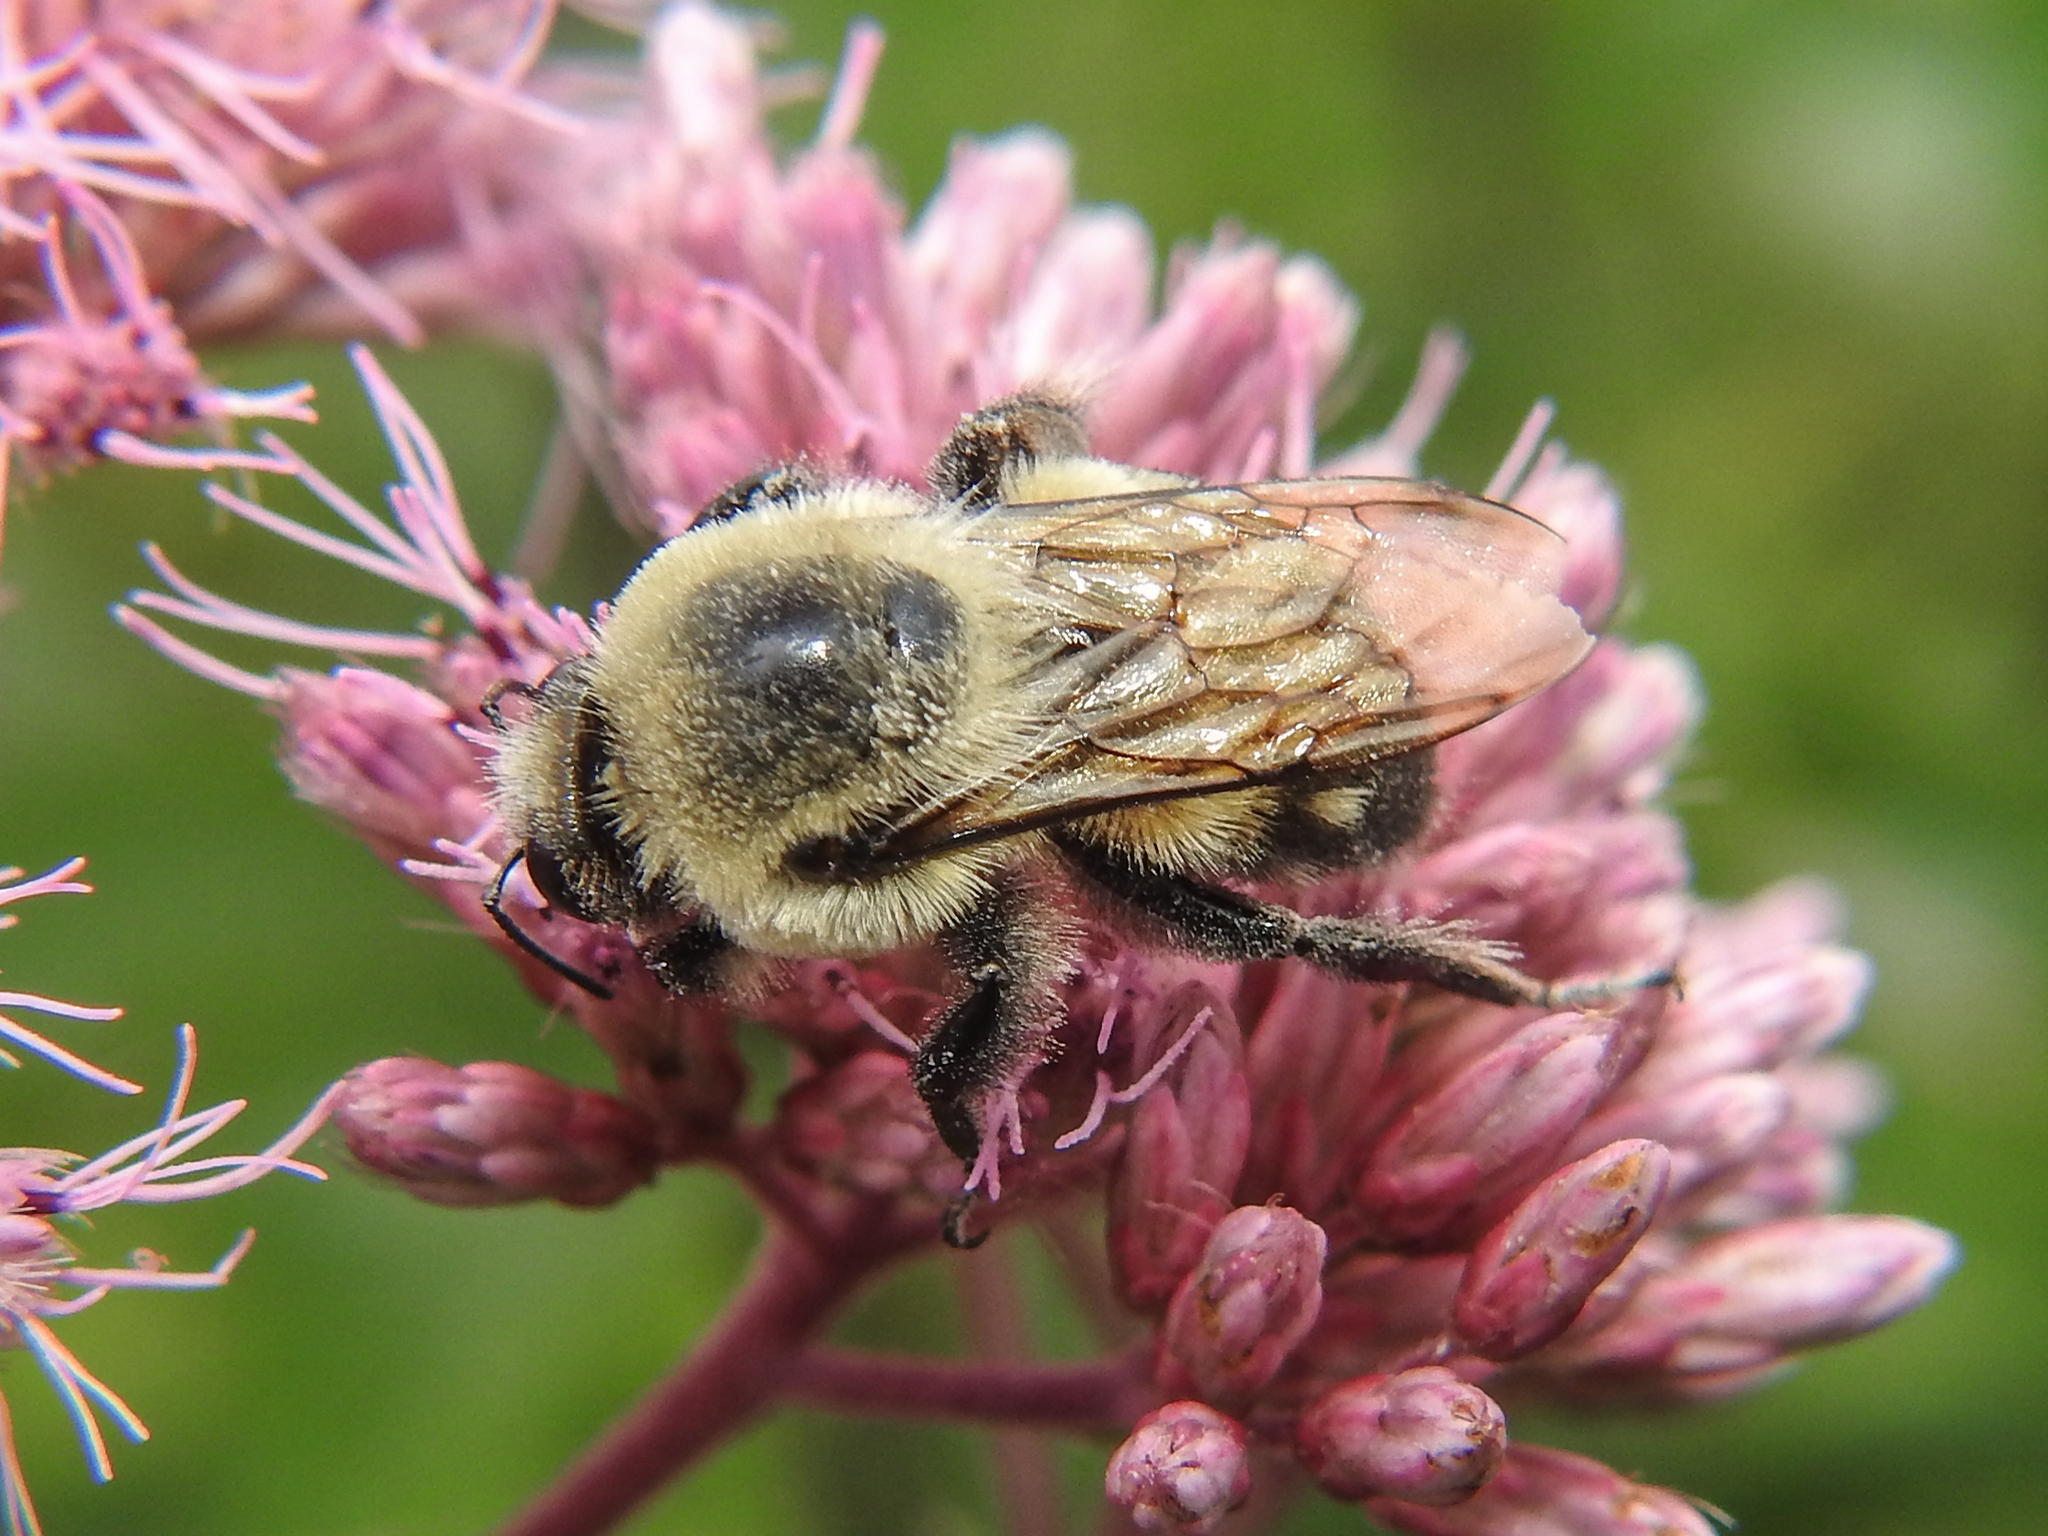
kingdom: Animalia
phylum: Arthropoda
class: Insecta
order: Hymenoptera
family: Apidae
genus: Bombus
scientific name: Bombus griseocollis
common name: Brown-belted bumble bee
